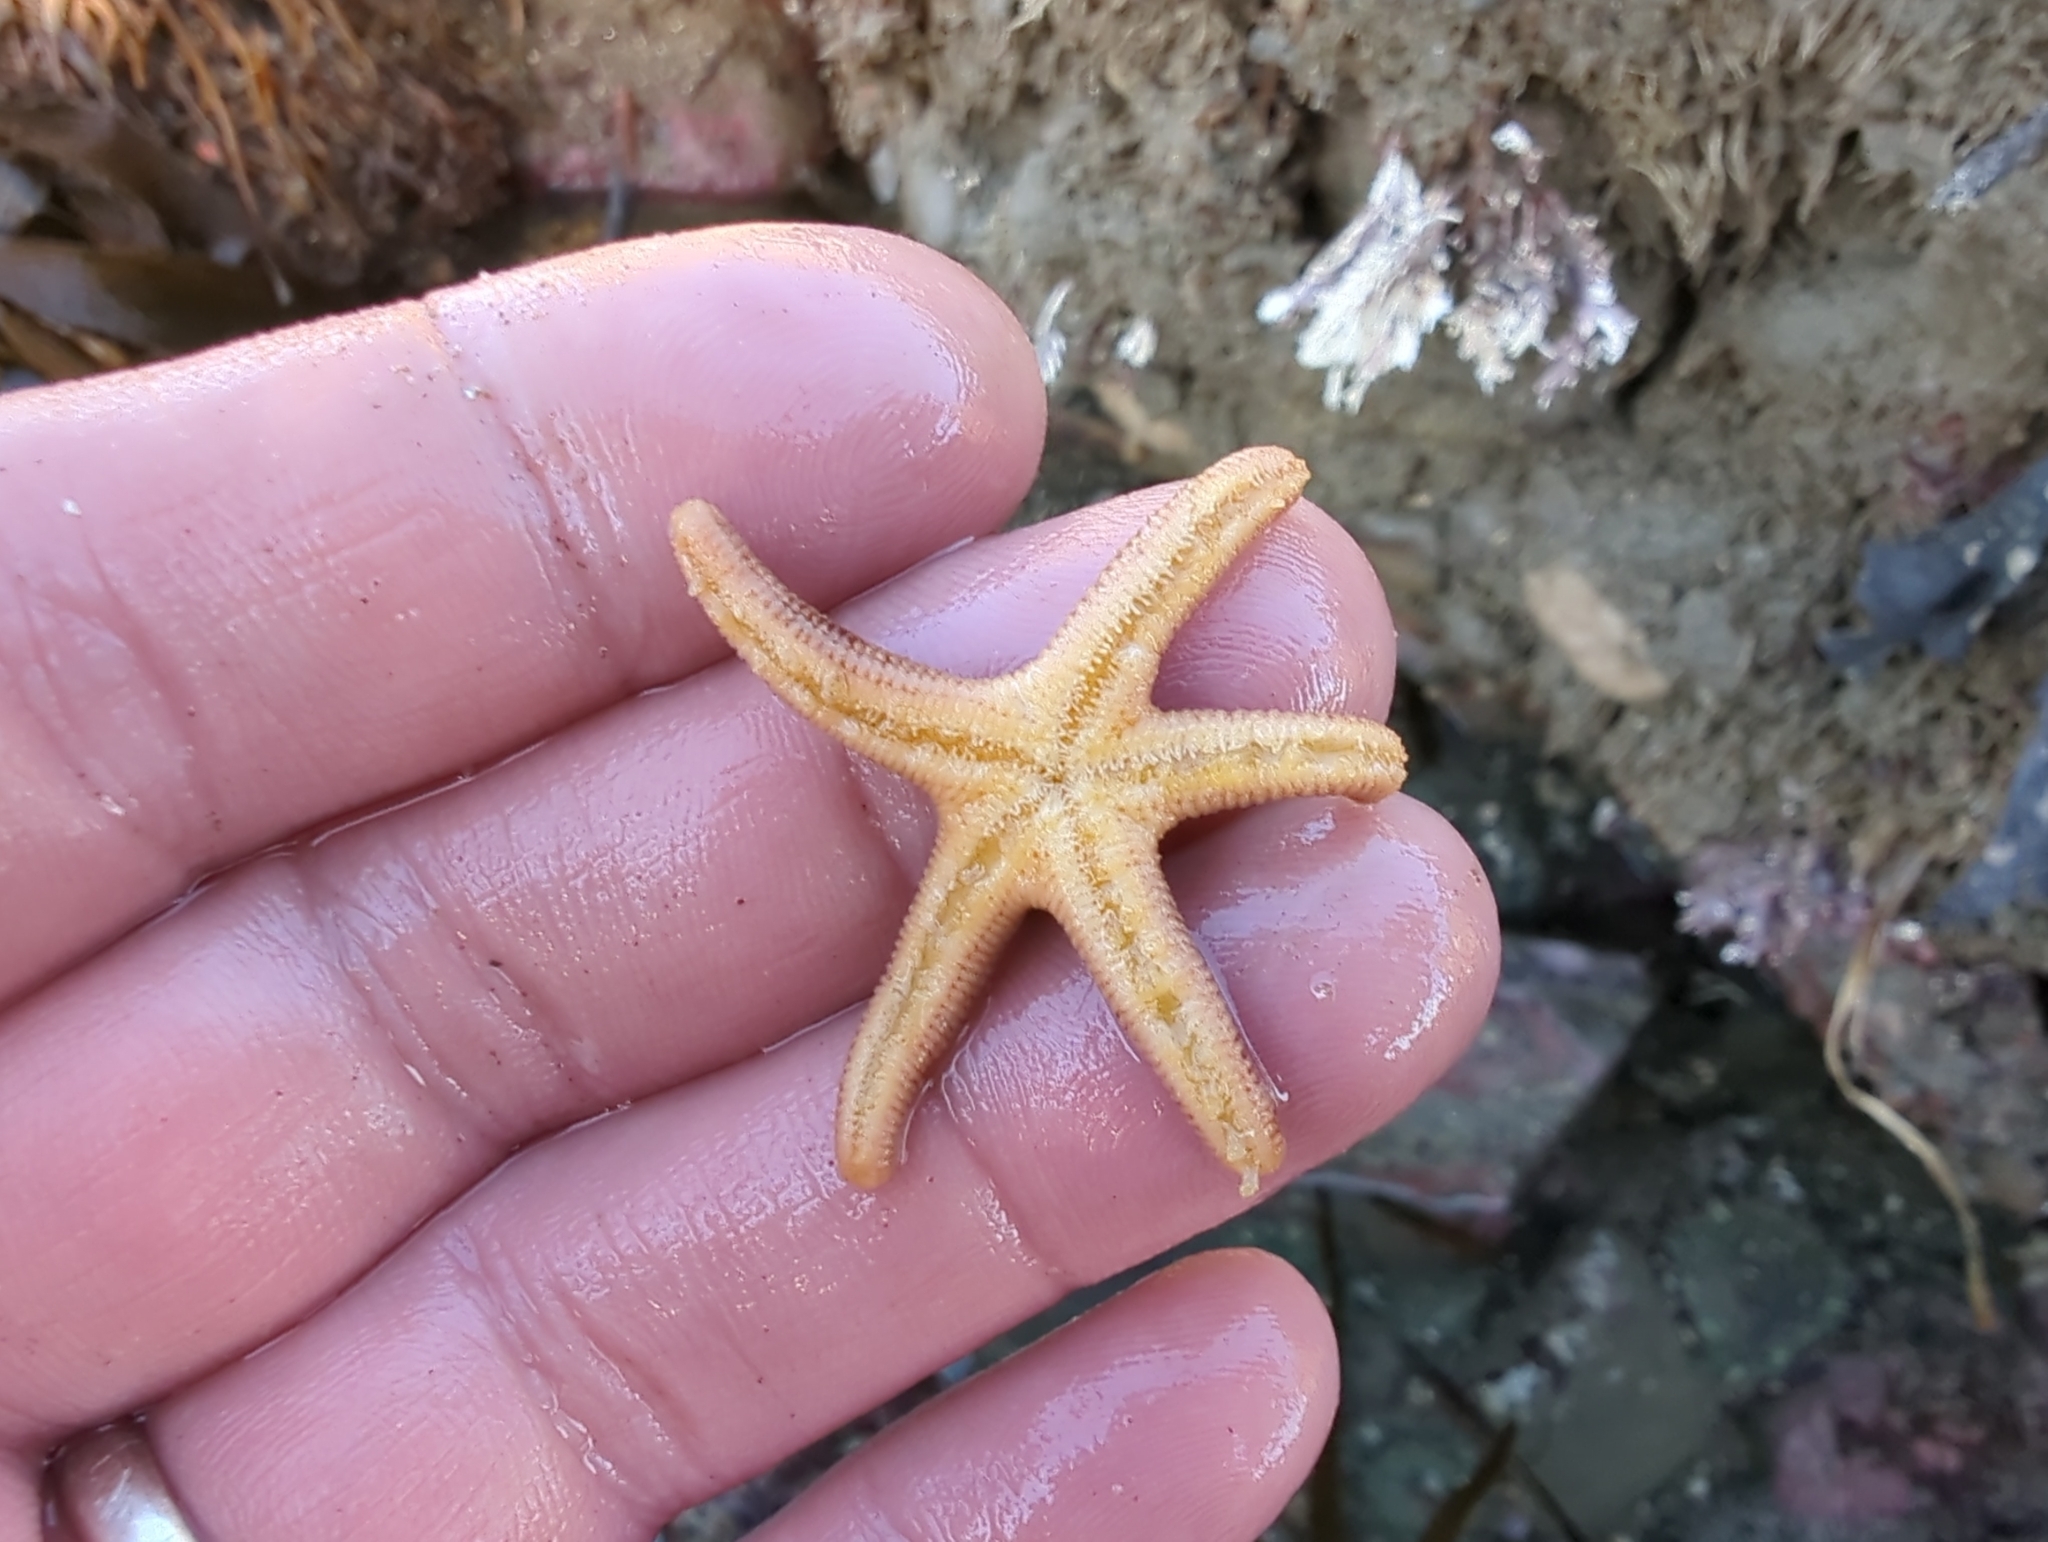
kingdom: Animalia
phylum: Echinodermata
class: Asteroidea
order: Spinulosida
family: Echinasteridae
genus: Henricia
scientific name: Henricia pumila
